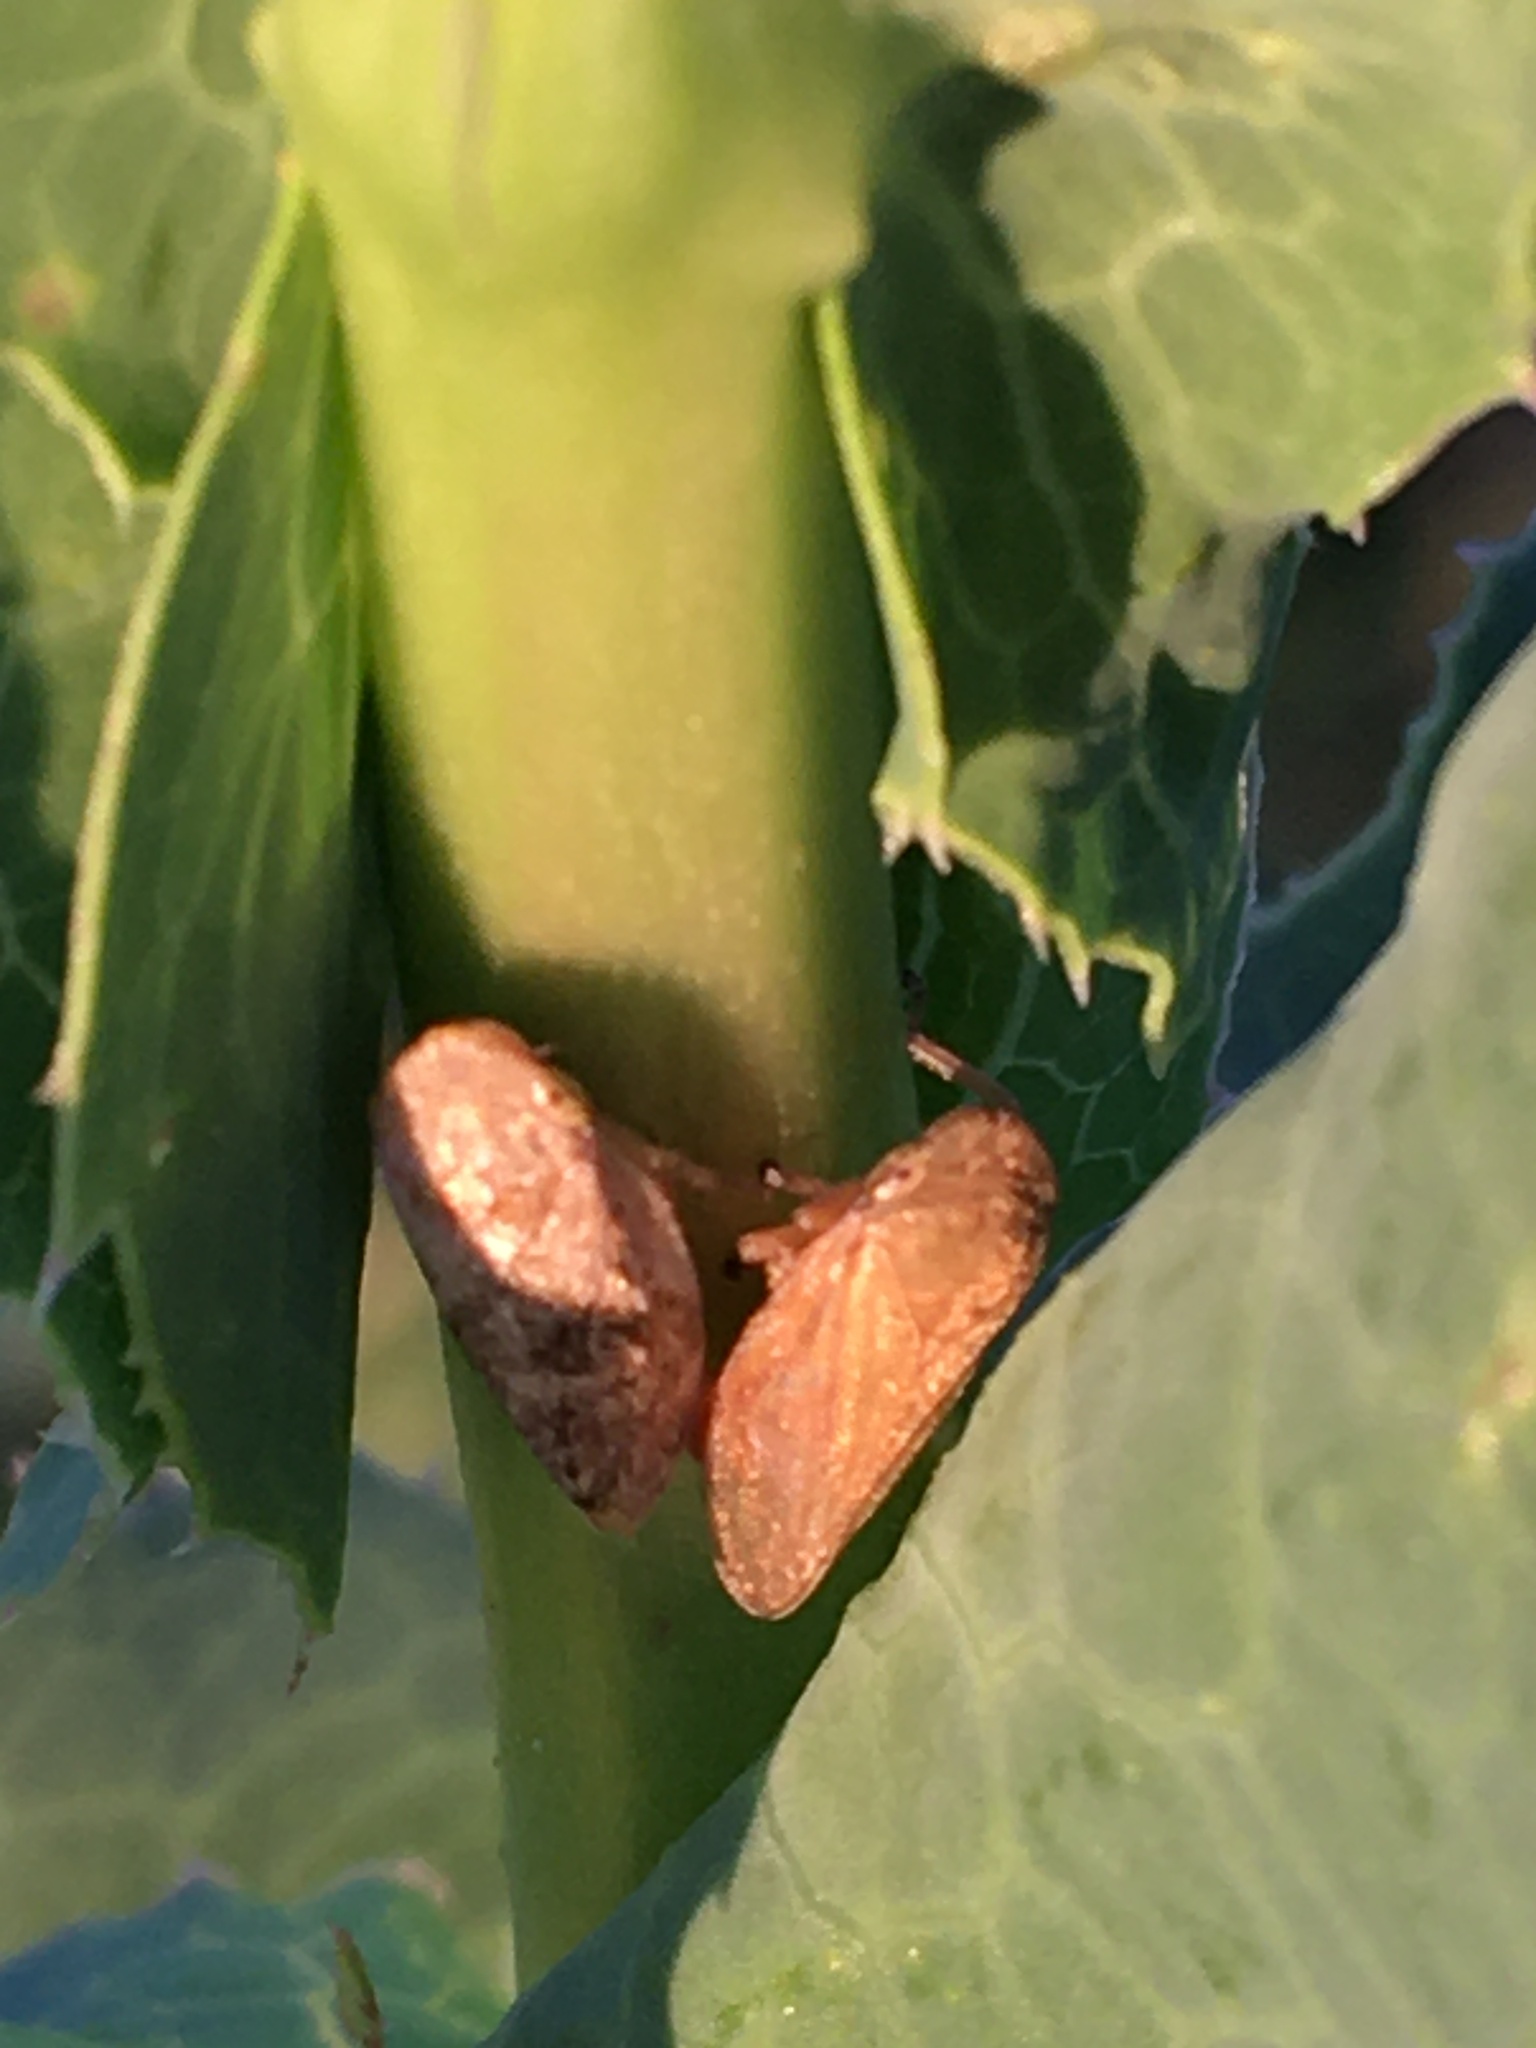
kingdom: Animalia
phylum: Arthropoda
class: Insecta
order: Hemiptera
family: Aphrophoridae
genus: Philaenus
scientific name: Philaenus spumarius
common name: Meadow spittlebug
